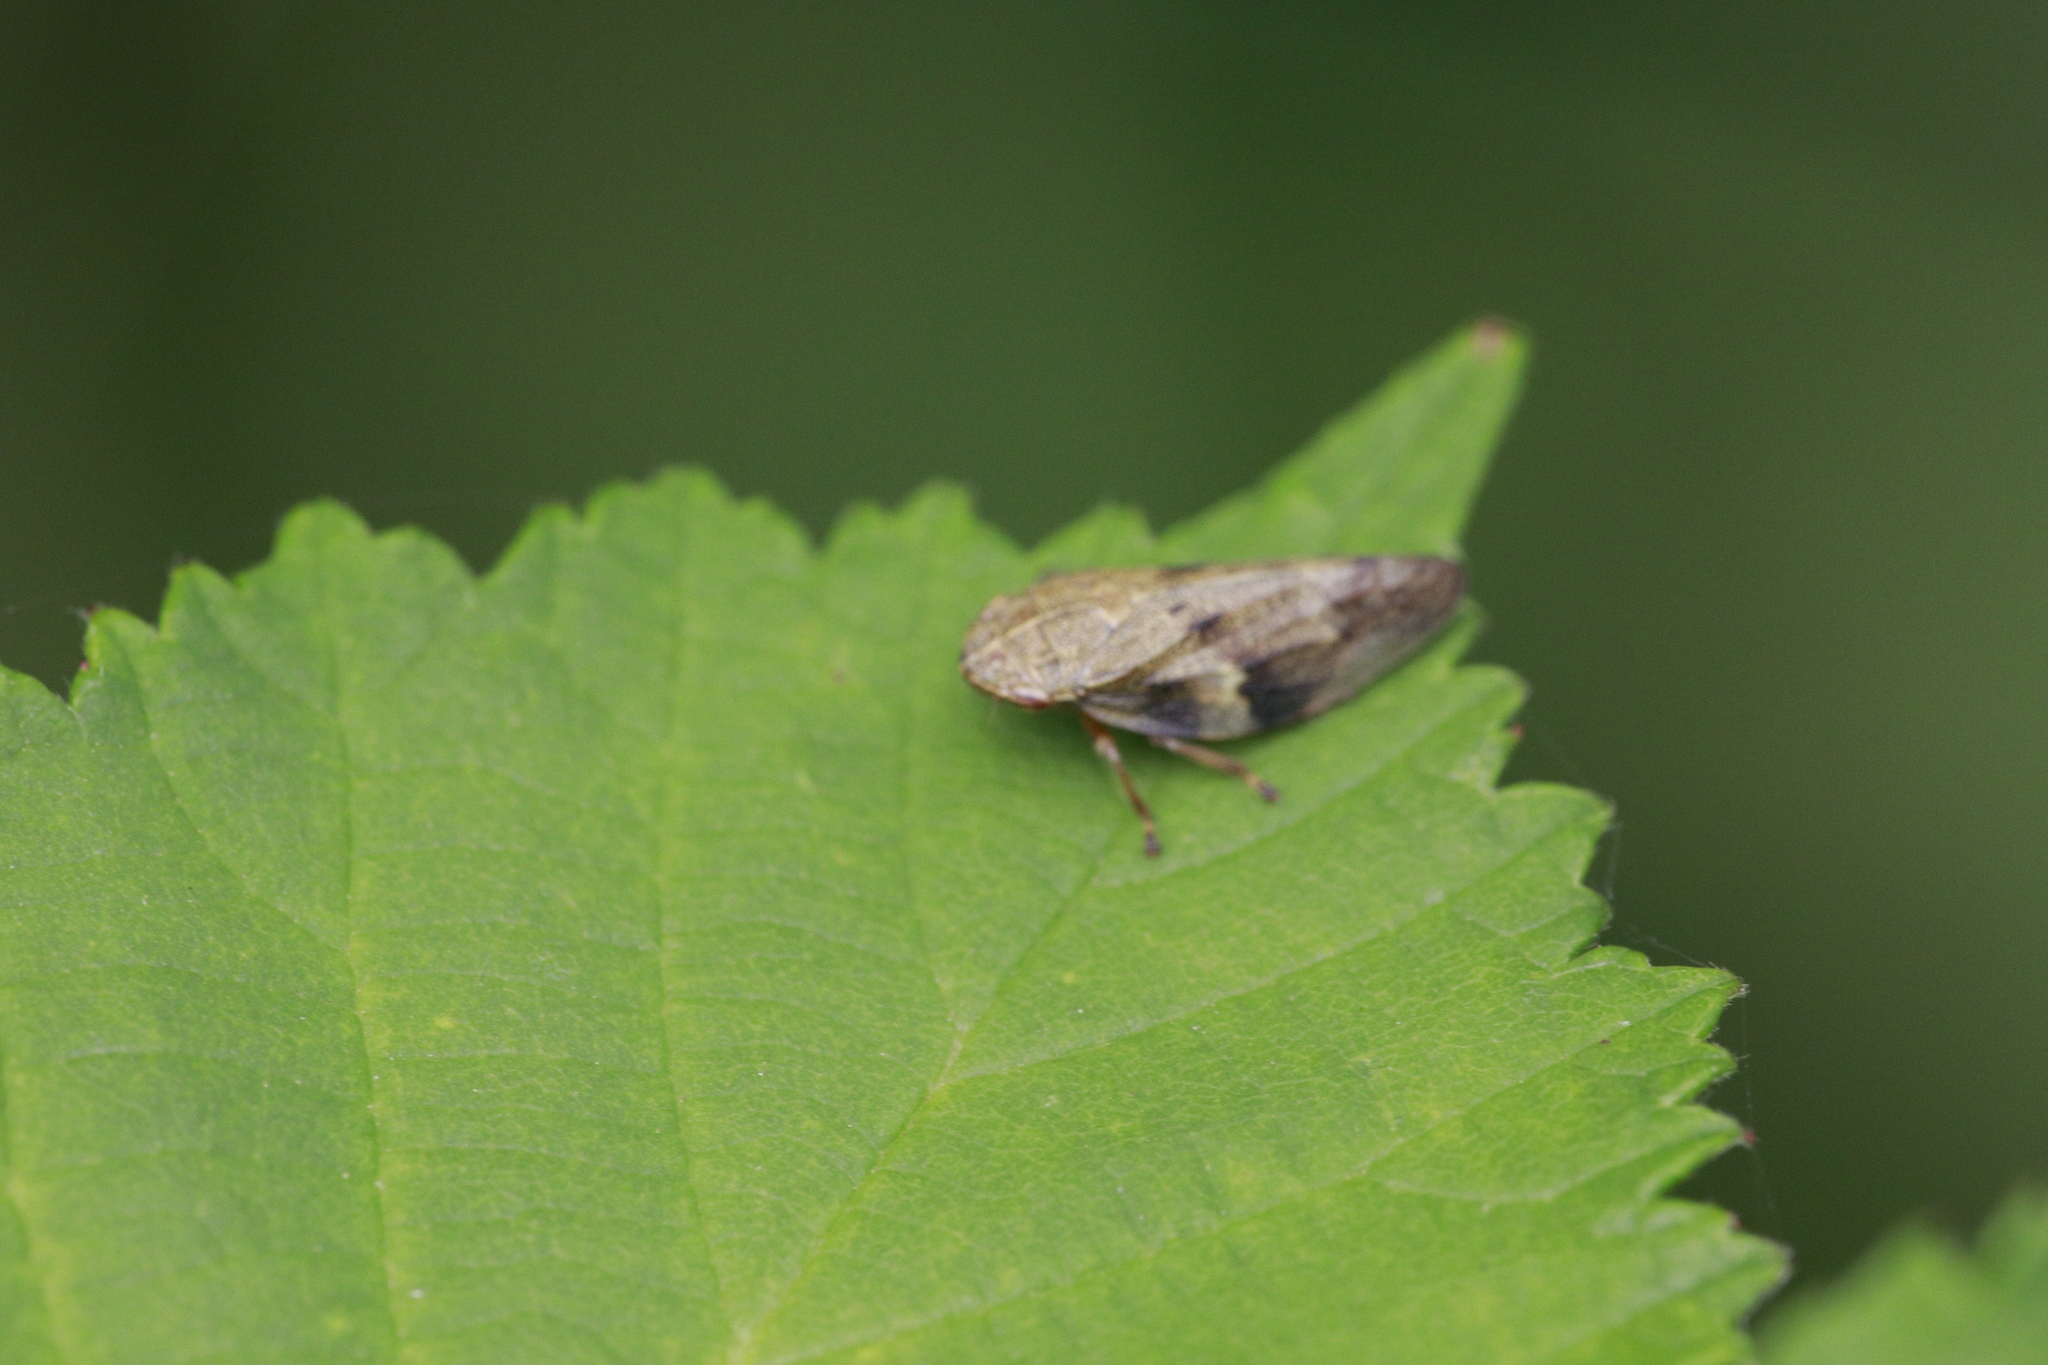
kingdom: Animalia
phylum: Arthropoda
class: Insecta
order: Hemiptera
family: Aphrophoridae
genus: Aphrophora
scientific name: Aphrophora alni
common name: European alder spittlebug
